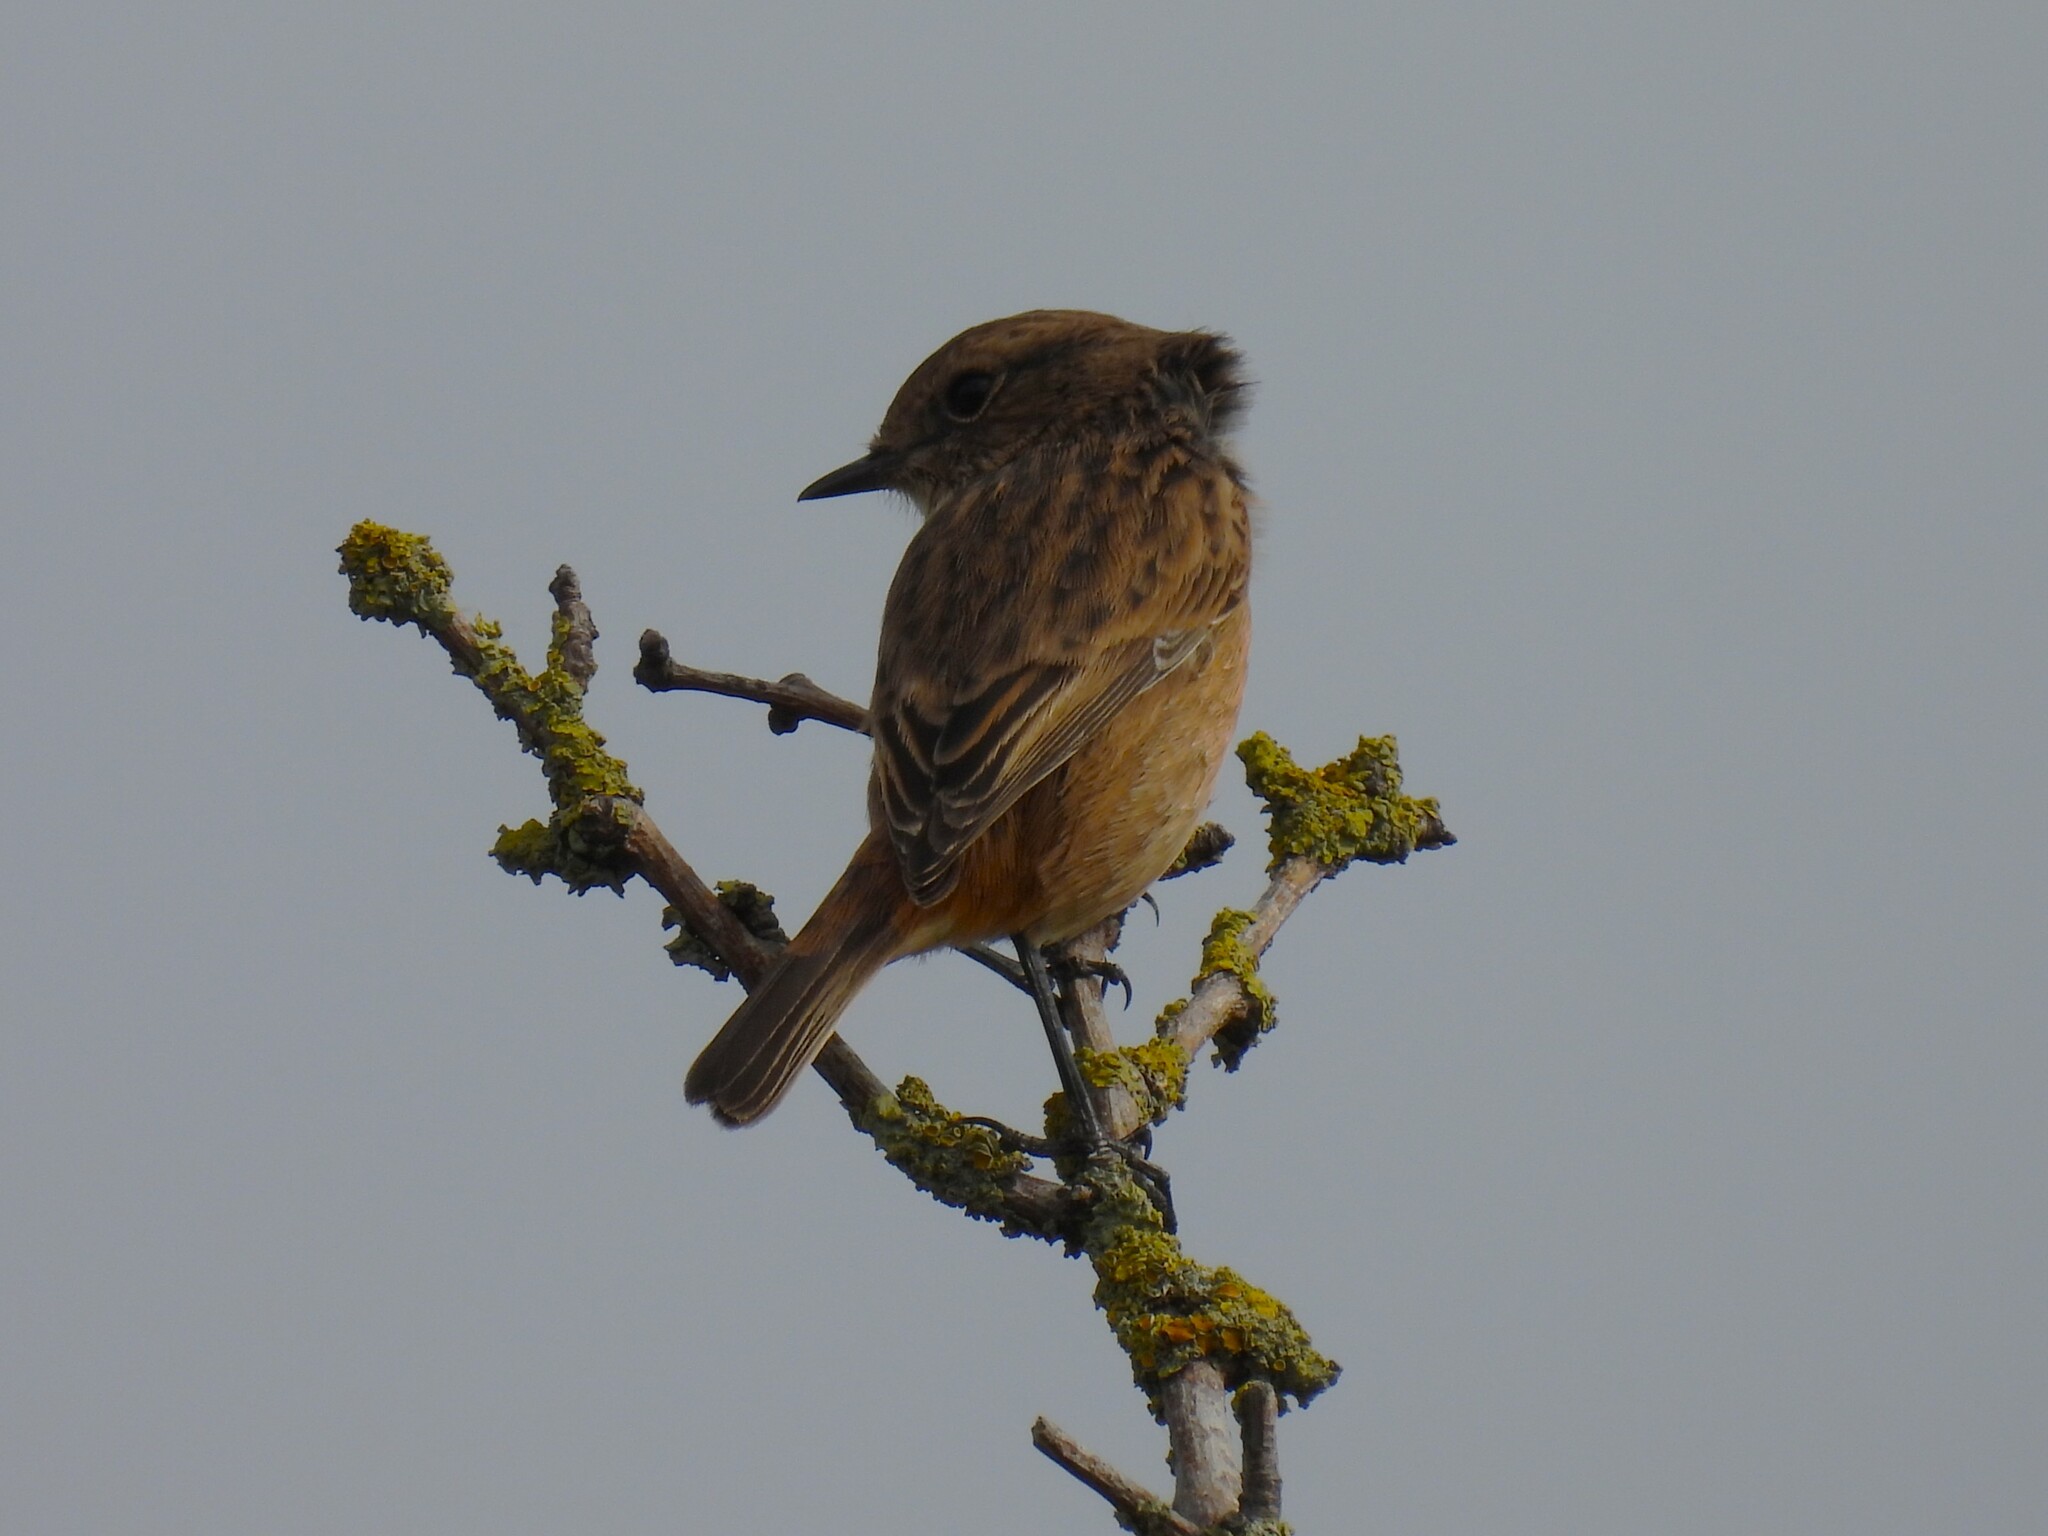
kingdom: Animalia
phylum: Chordata
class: Aves
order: Passeriformes
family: Muscicapidae
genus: Saxicola
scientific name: Saxicola rubicola
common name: European stonechat
